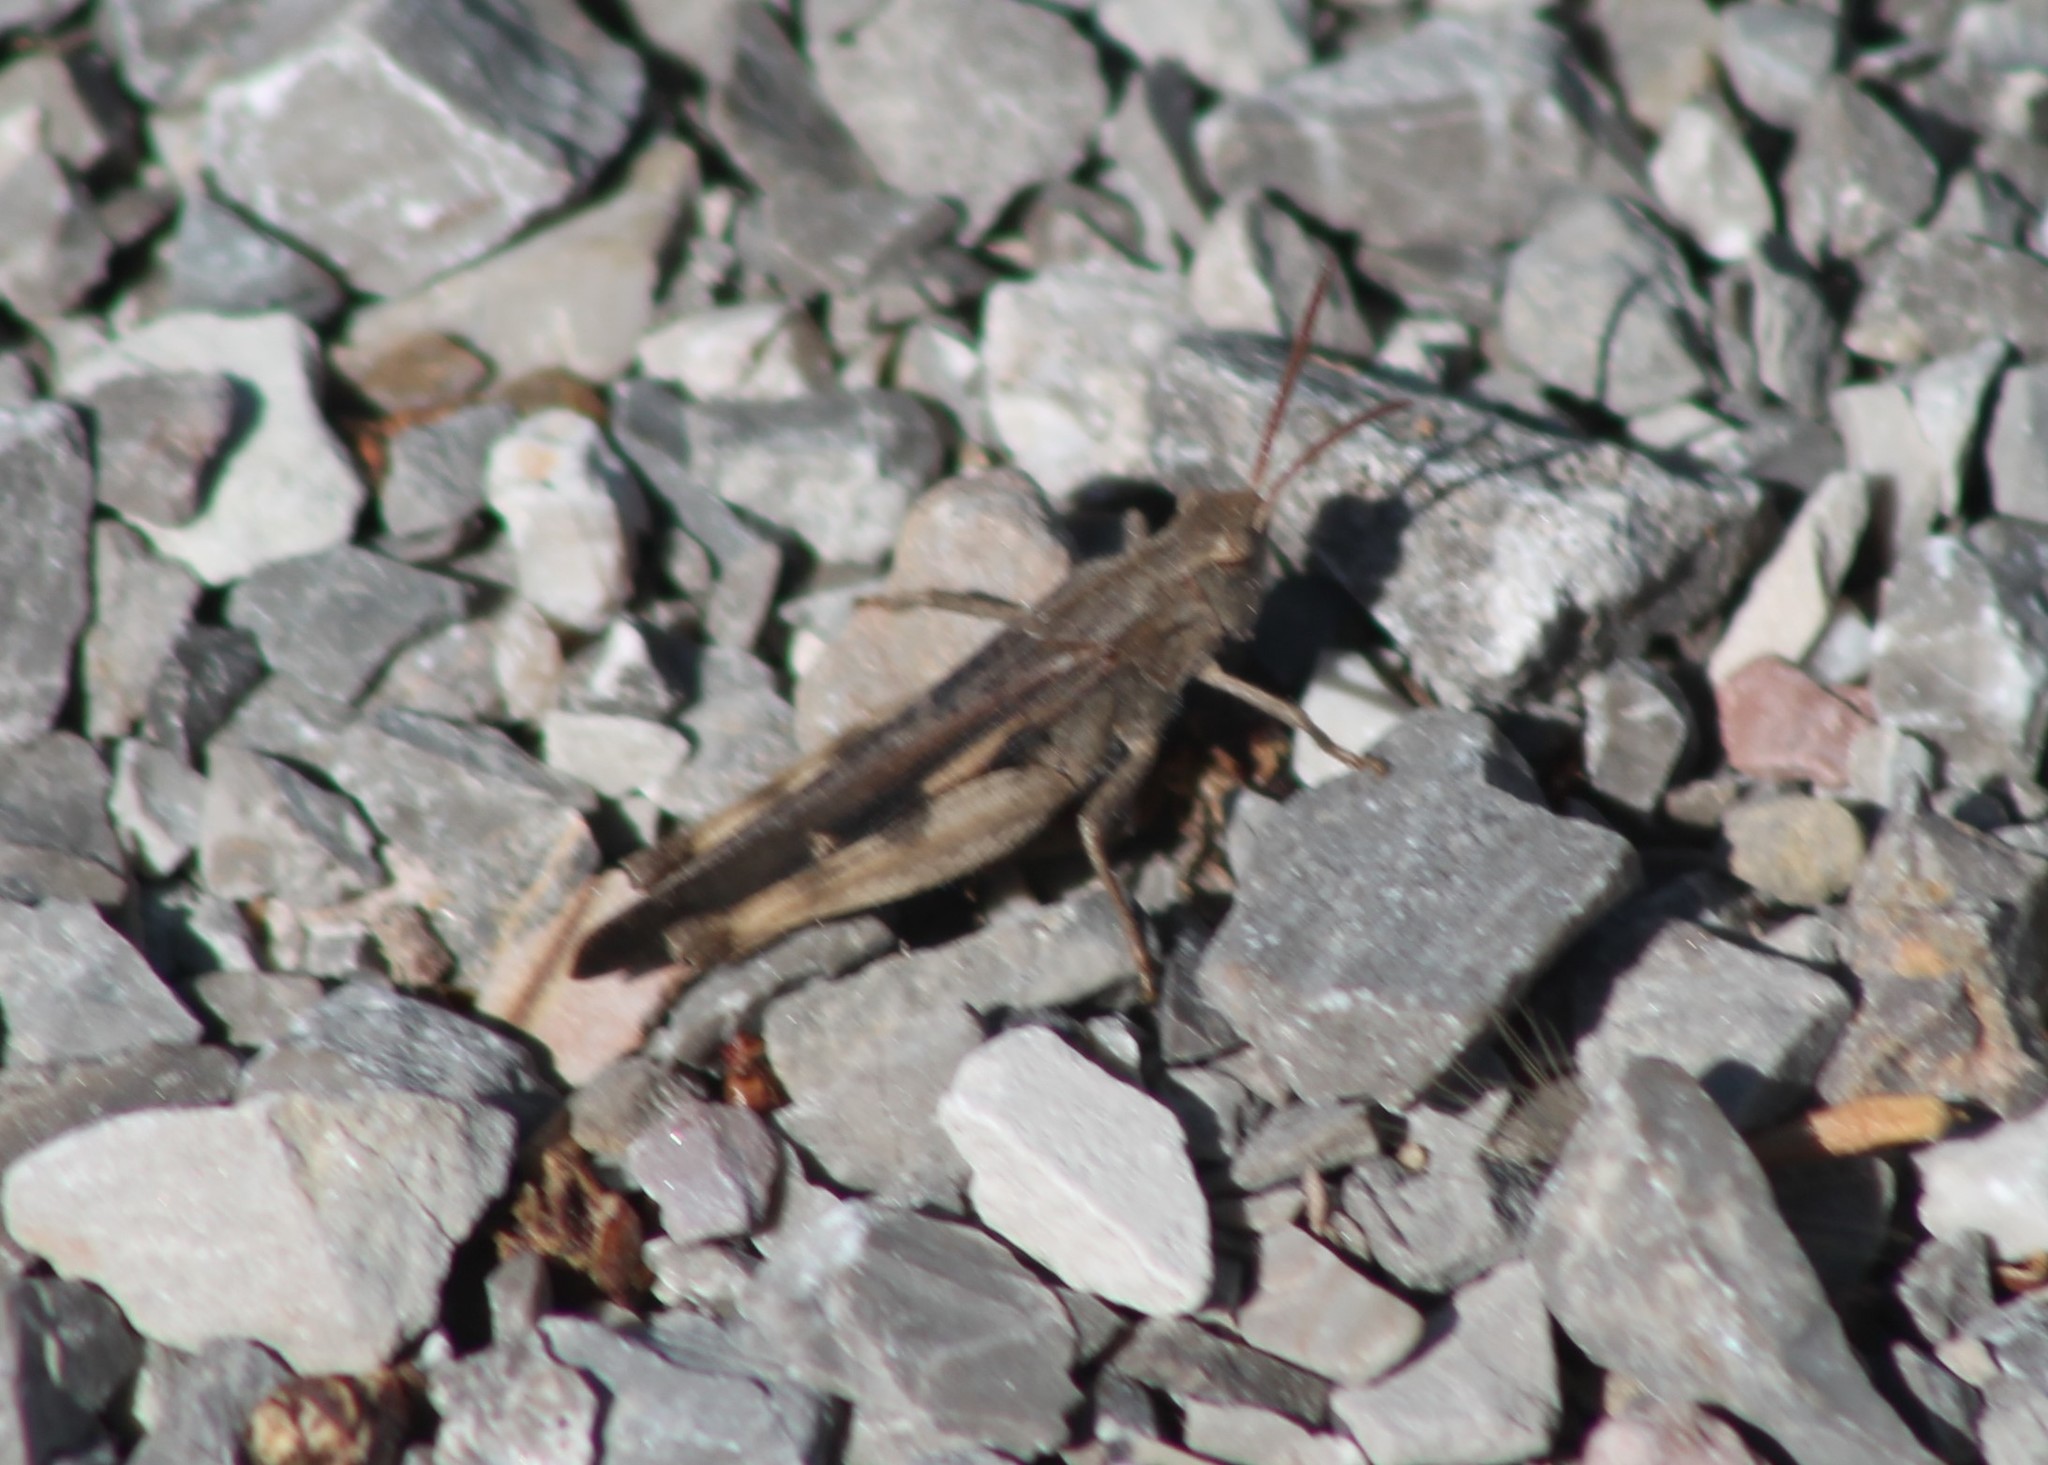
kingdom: Animalia
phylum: Arthropoda
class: Insecta
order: Orthoptera
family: Acrididae
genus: Chortophaga
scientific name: Chortophaga viridifasciata
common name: Green-striped grasshopper
